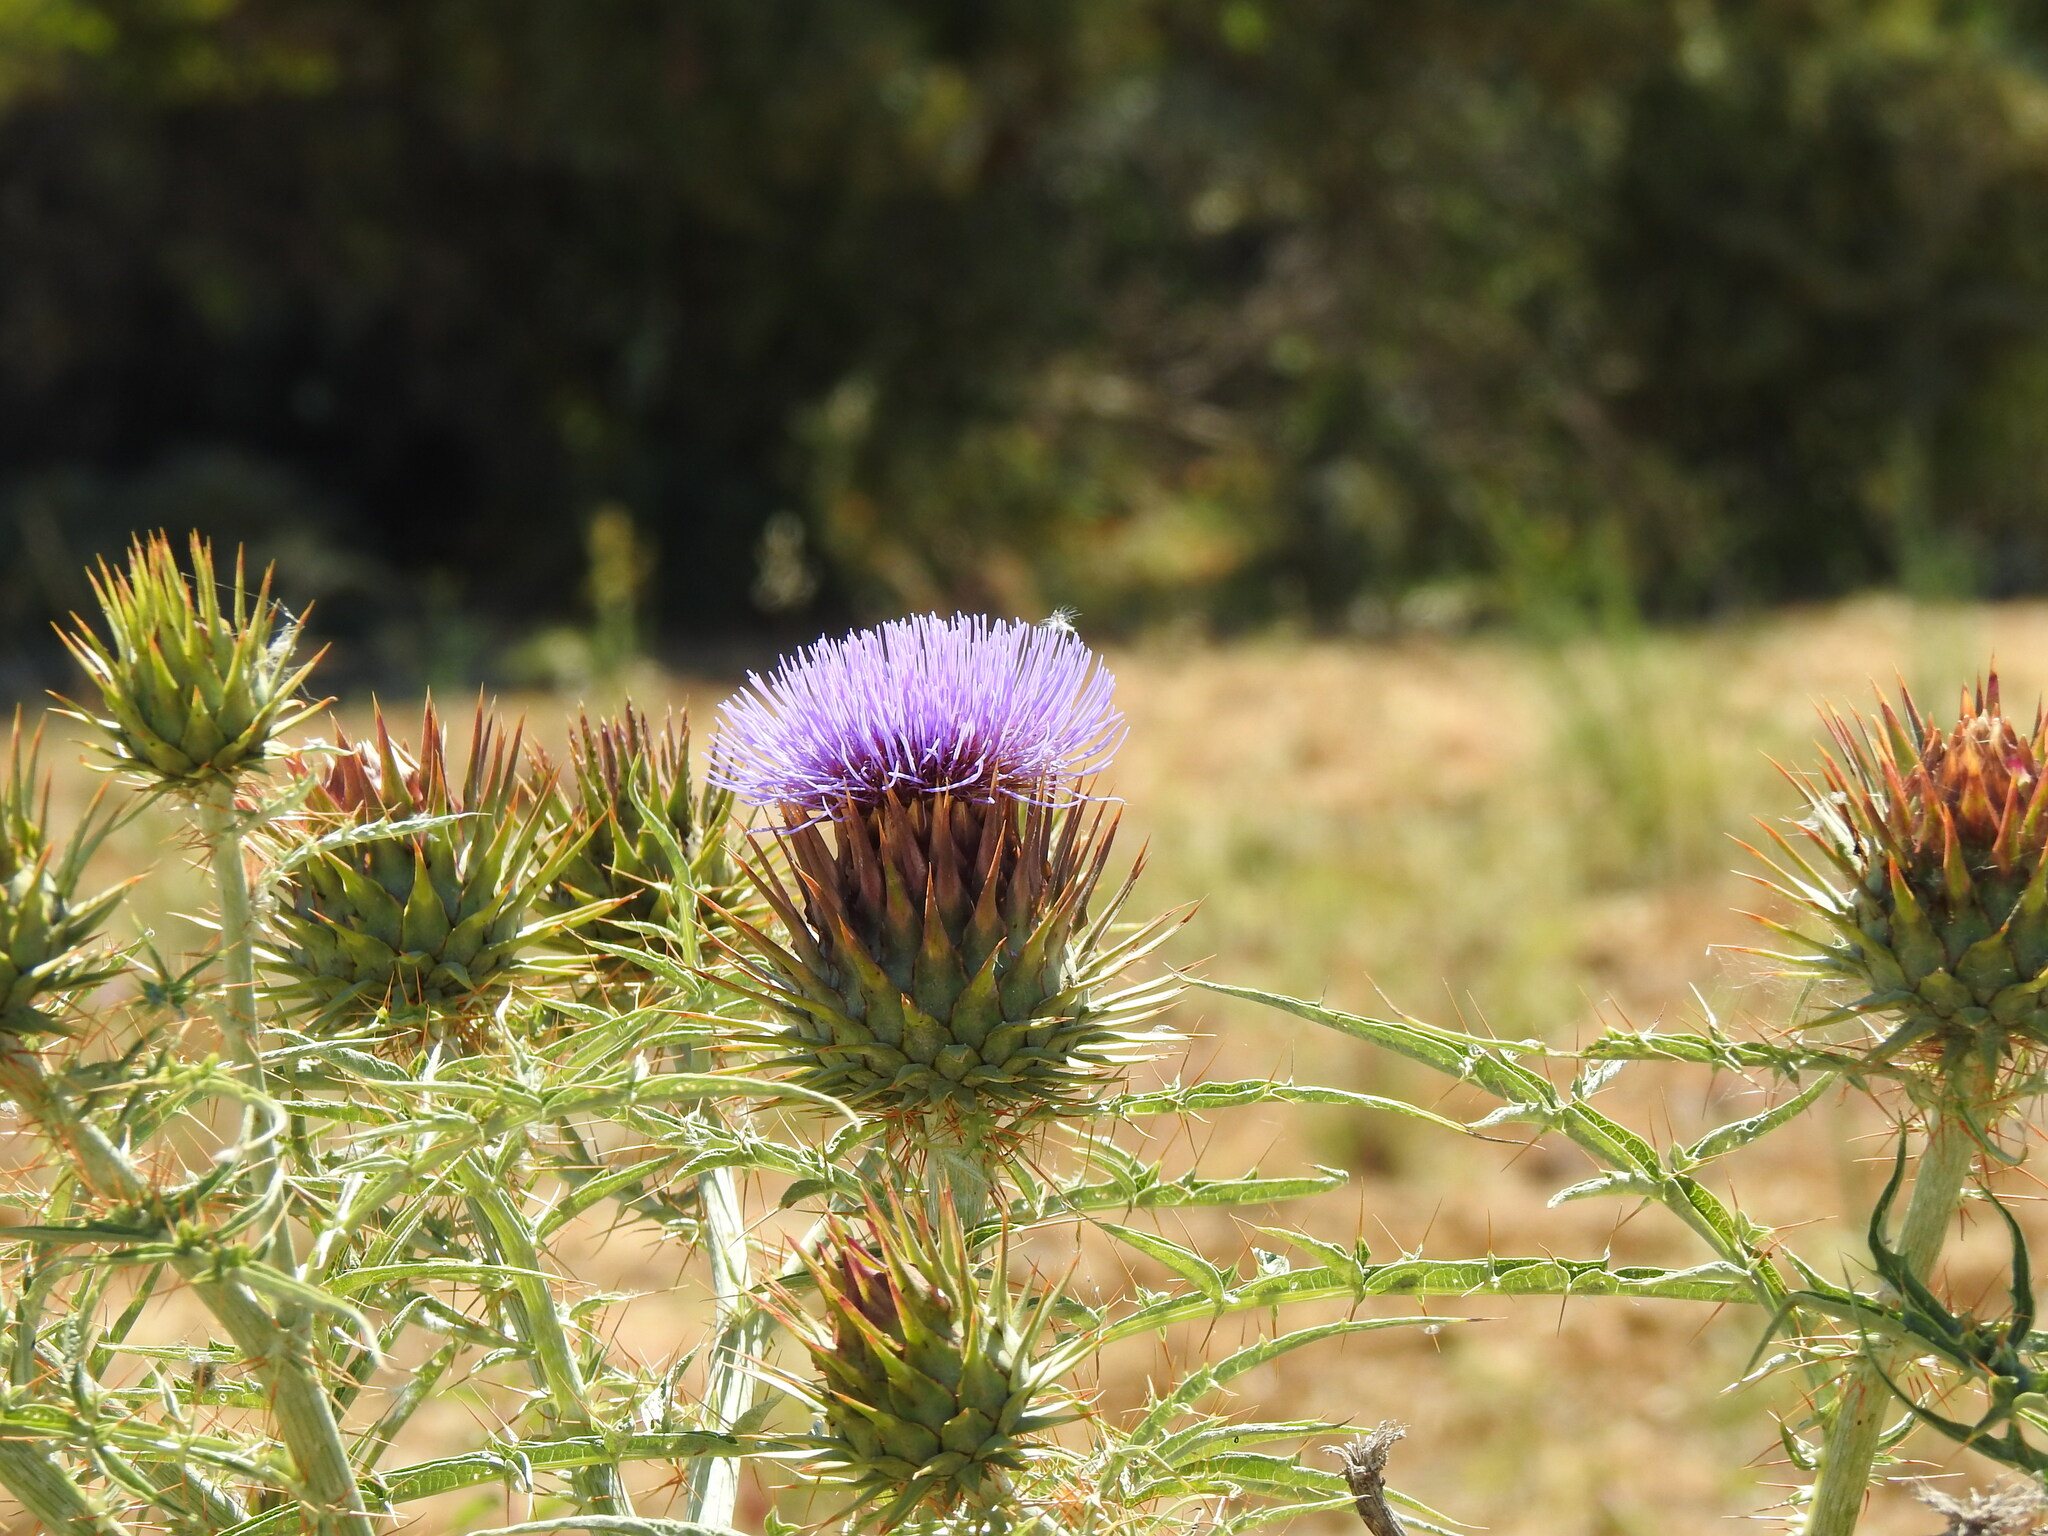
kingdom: Plantae
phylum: Tracheophyta
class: Magnoliopsida
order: Asterales
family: Asteraceae
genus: Cynara
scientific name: Cynara cardunculus
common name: Globe artichoke
